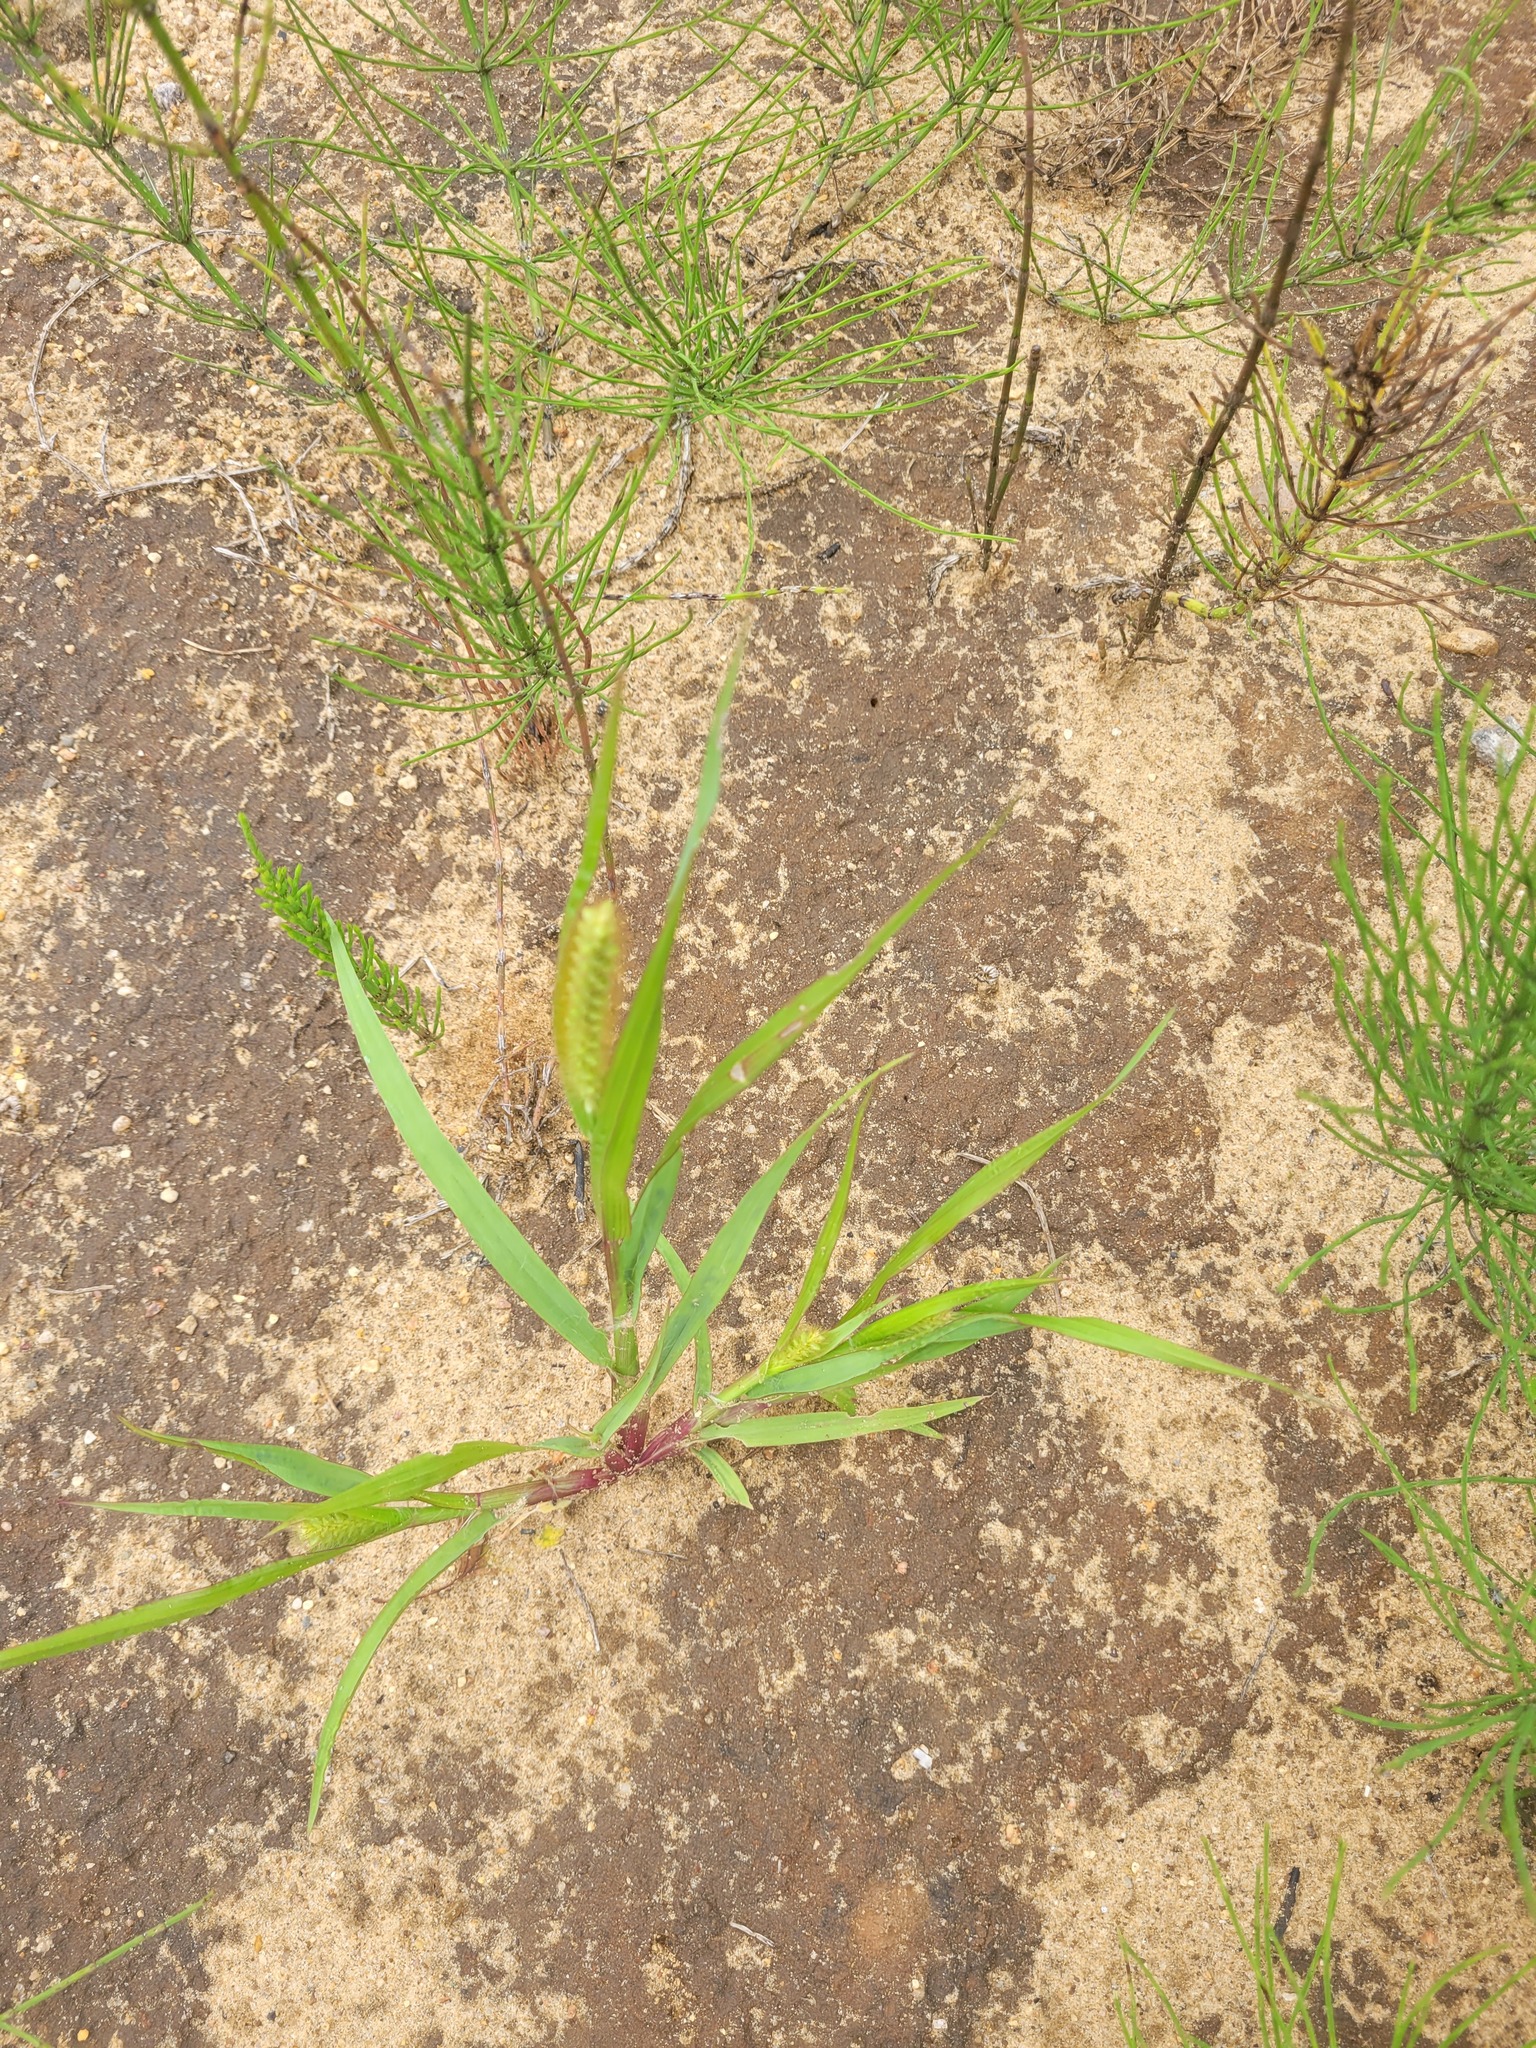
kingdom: Plantae
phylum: Tracheophyta
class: Liliopsida
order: Poales
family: Poaceae
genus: Setaria
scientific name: Setaria pumila
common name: Yellow bristle-grass
